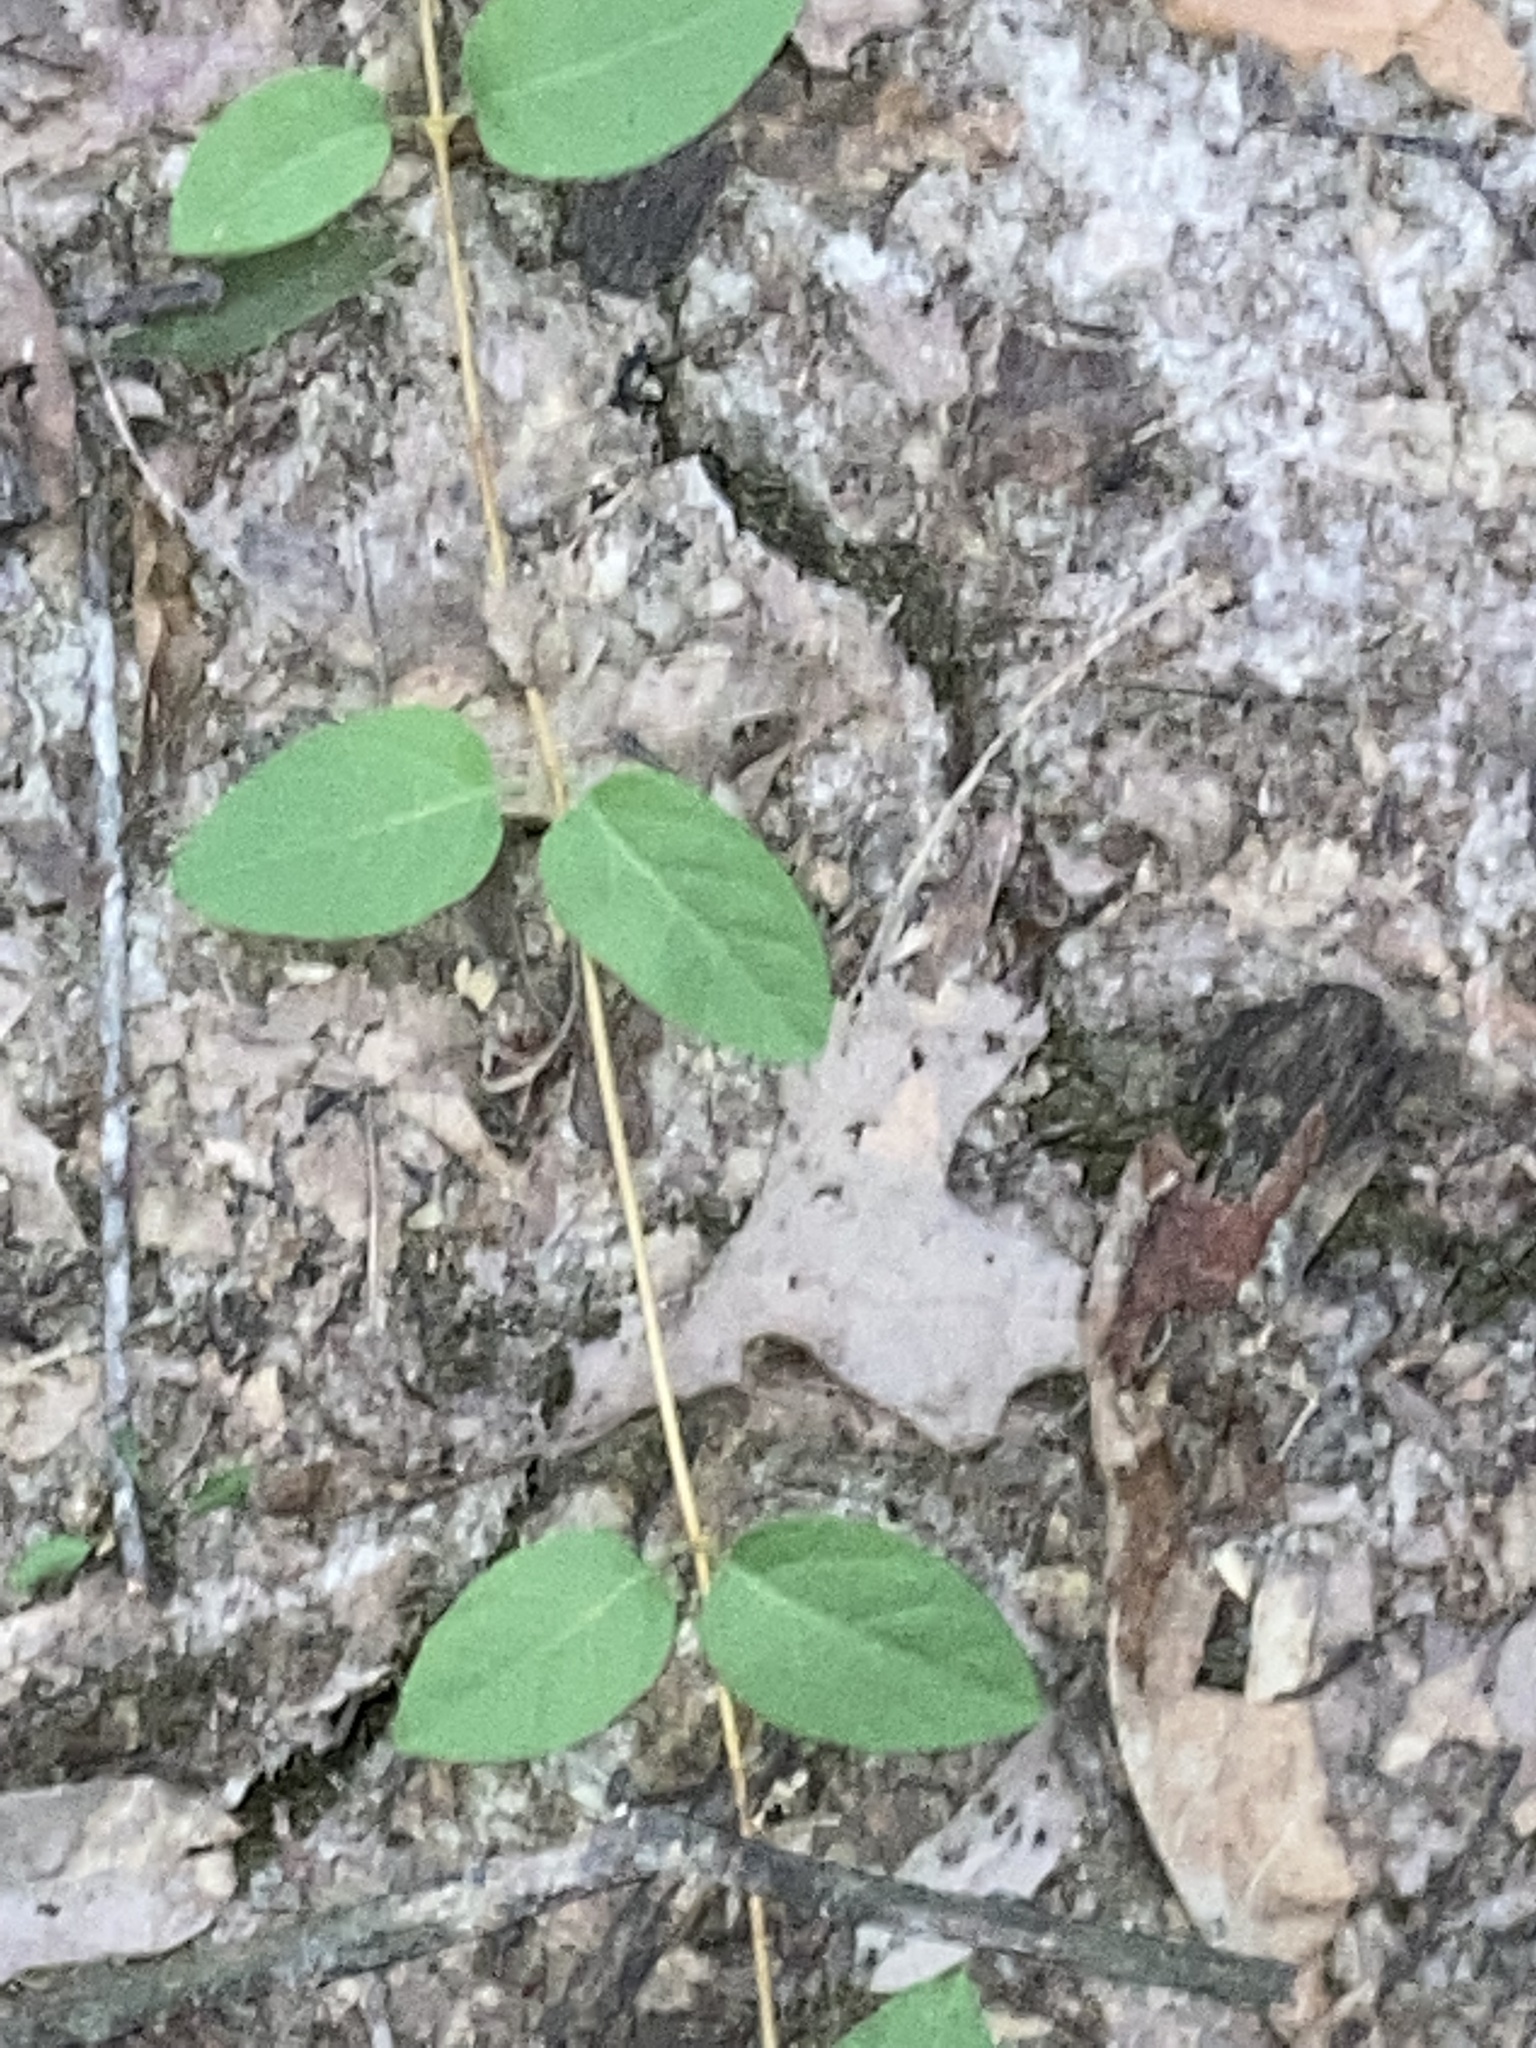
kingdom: Plantae
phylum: Tracheophyta
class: Magnoliopsida
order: Dipsacales
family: Caprifoliaceae
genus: Lonicera
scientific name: Lonicera japonica
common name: Japanese honeysuckle
